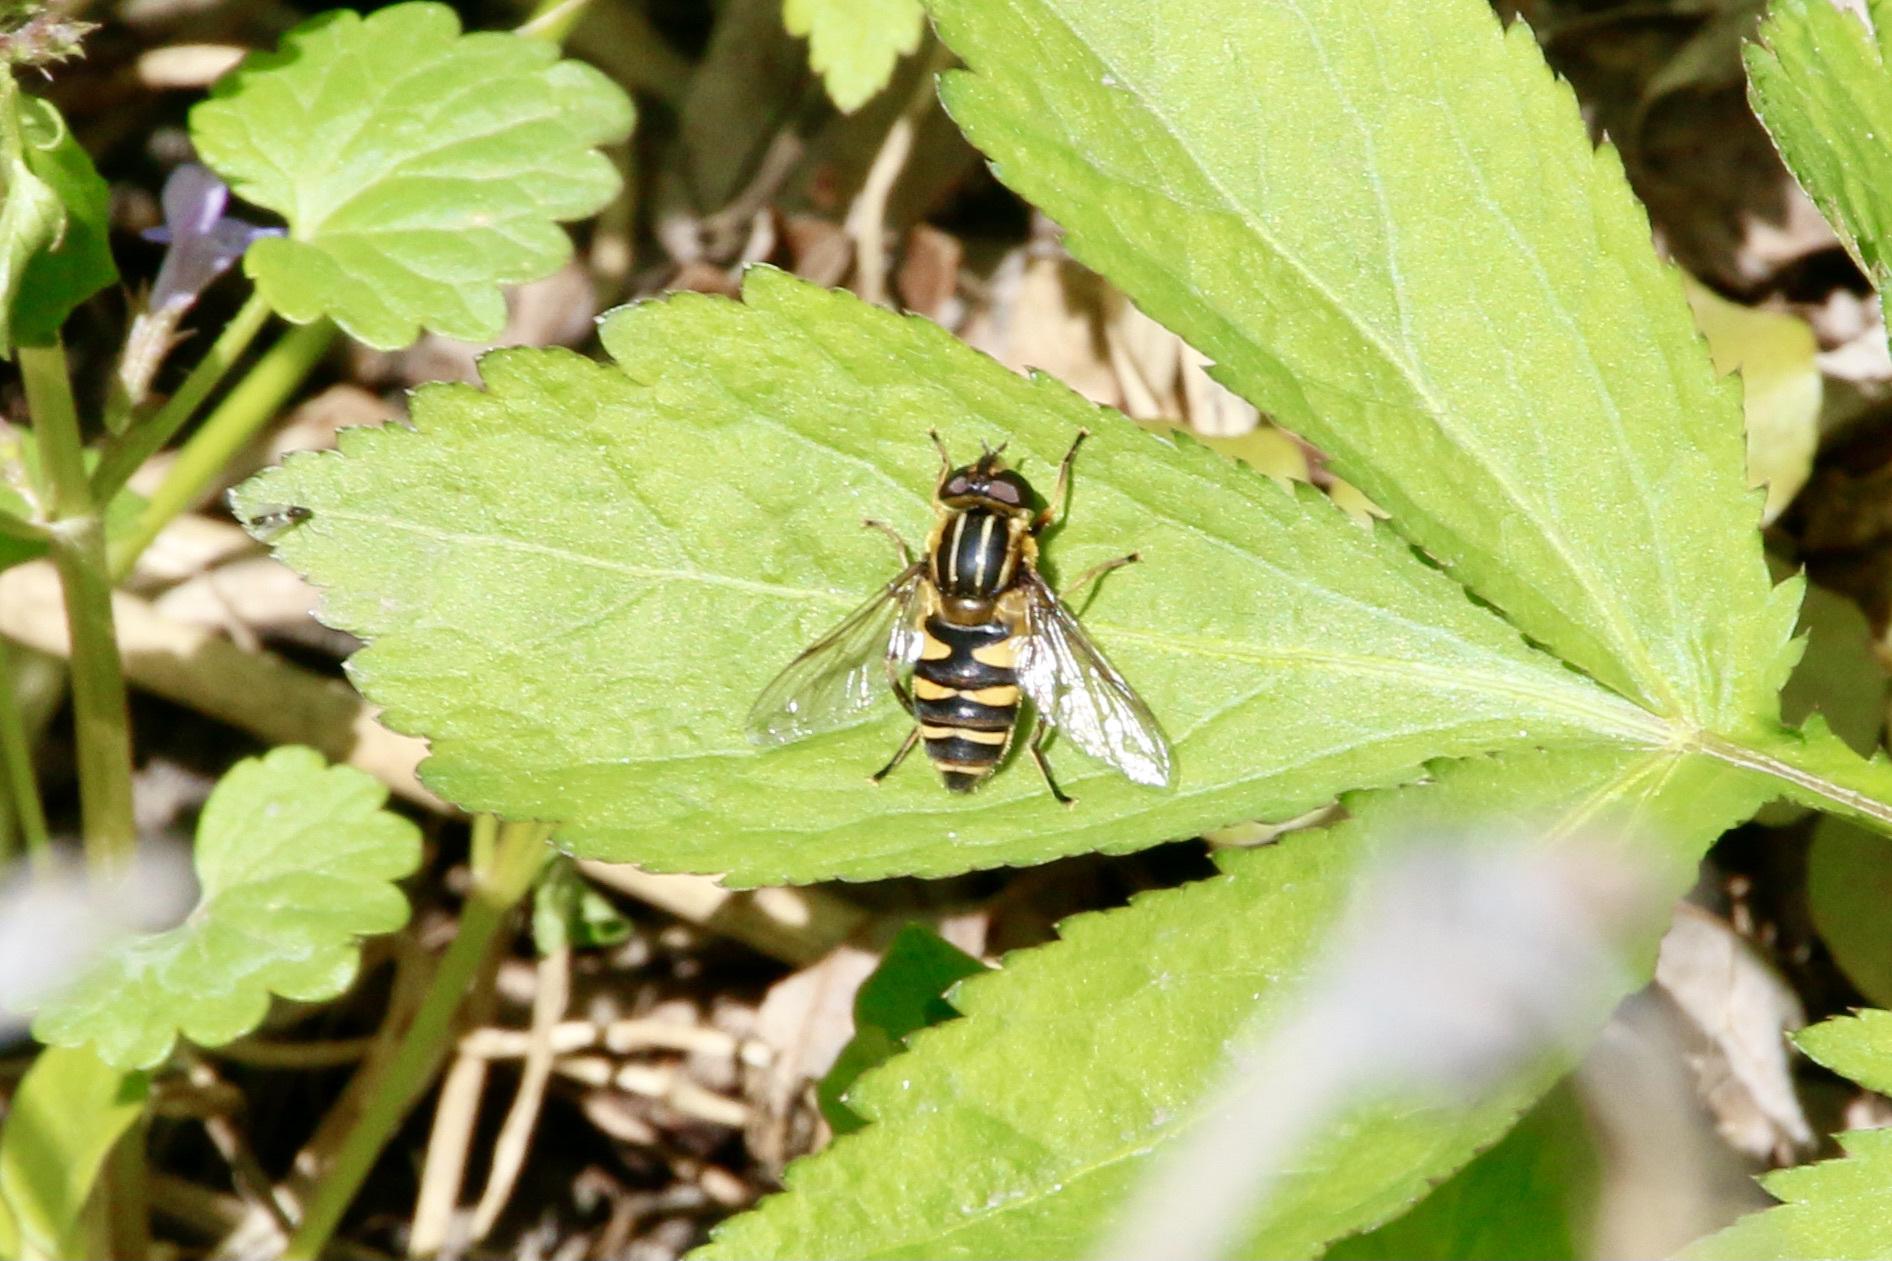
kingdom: Animalia
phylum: Arthropoda
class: Insecta
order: Diptera
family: Syrphidae
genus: Helophilus
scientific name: Helophilus fasciatus
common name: Narrow-headed marsh fly
